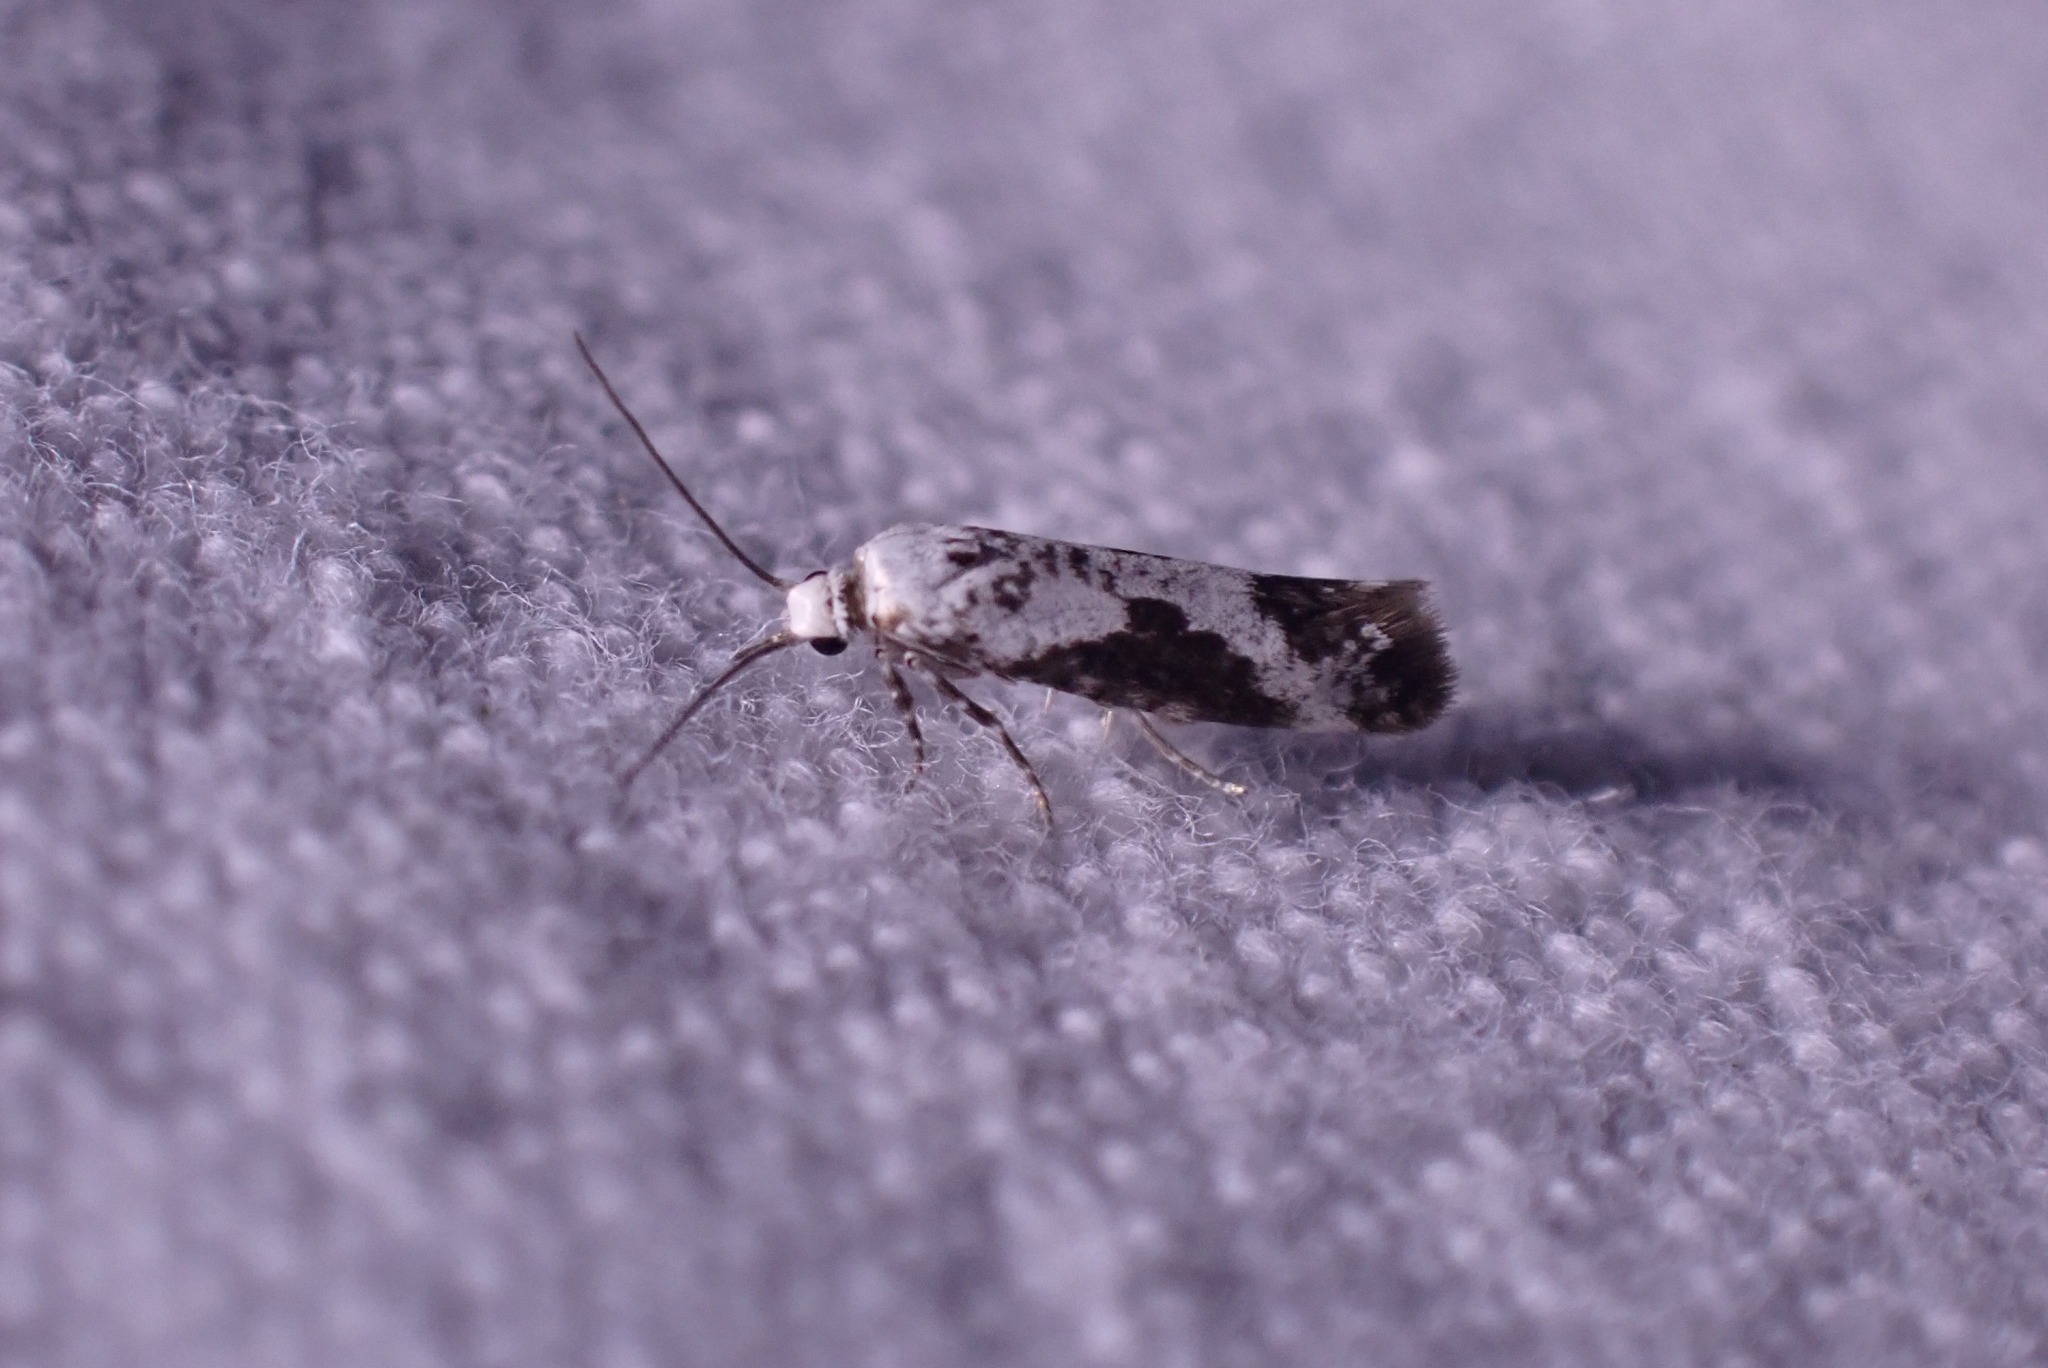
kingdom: Animalia
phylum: Arthropoda
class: Insecta
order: Lepidoptera
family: Praydidae
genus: Prays
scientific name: Prays fraxinella
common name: Ash bud moth
